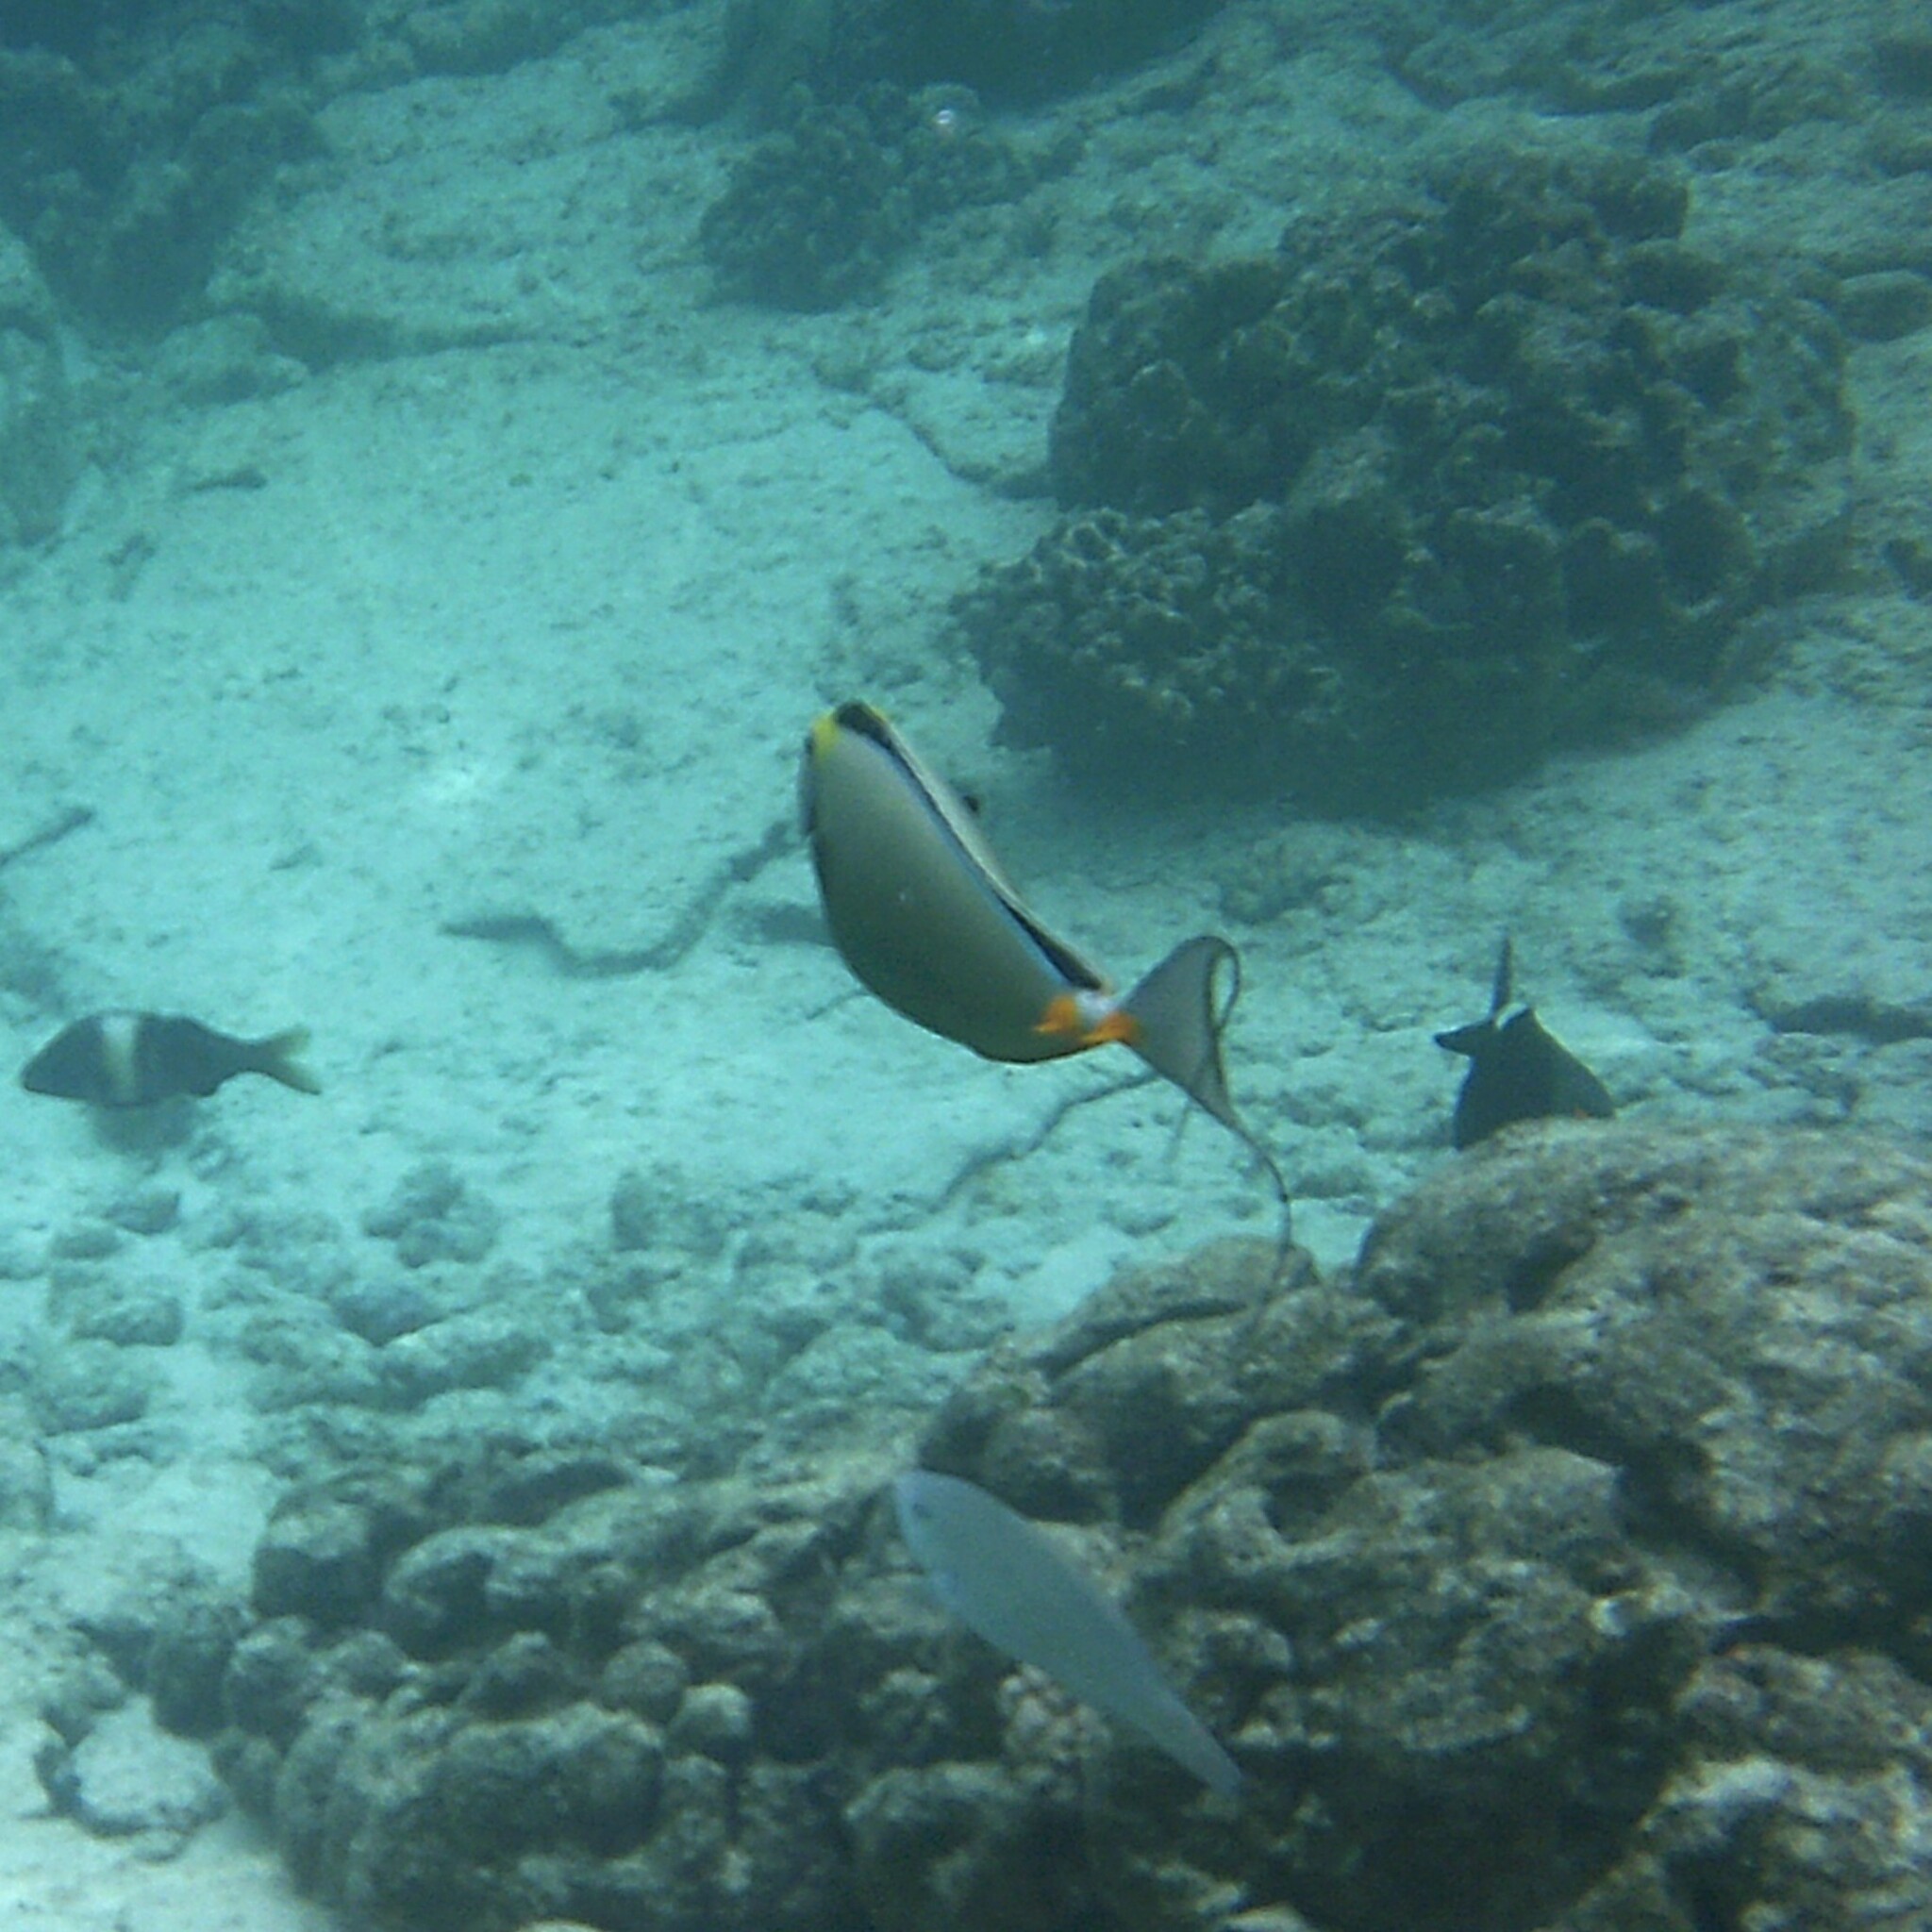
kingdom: Animalia
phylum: Chordata
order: Perciformes
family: Acanthuridae
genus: Naso
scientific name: Naso lituratus
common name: Orangespine unicornfish
